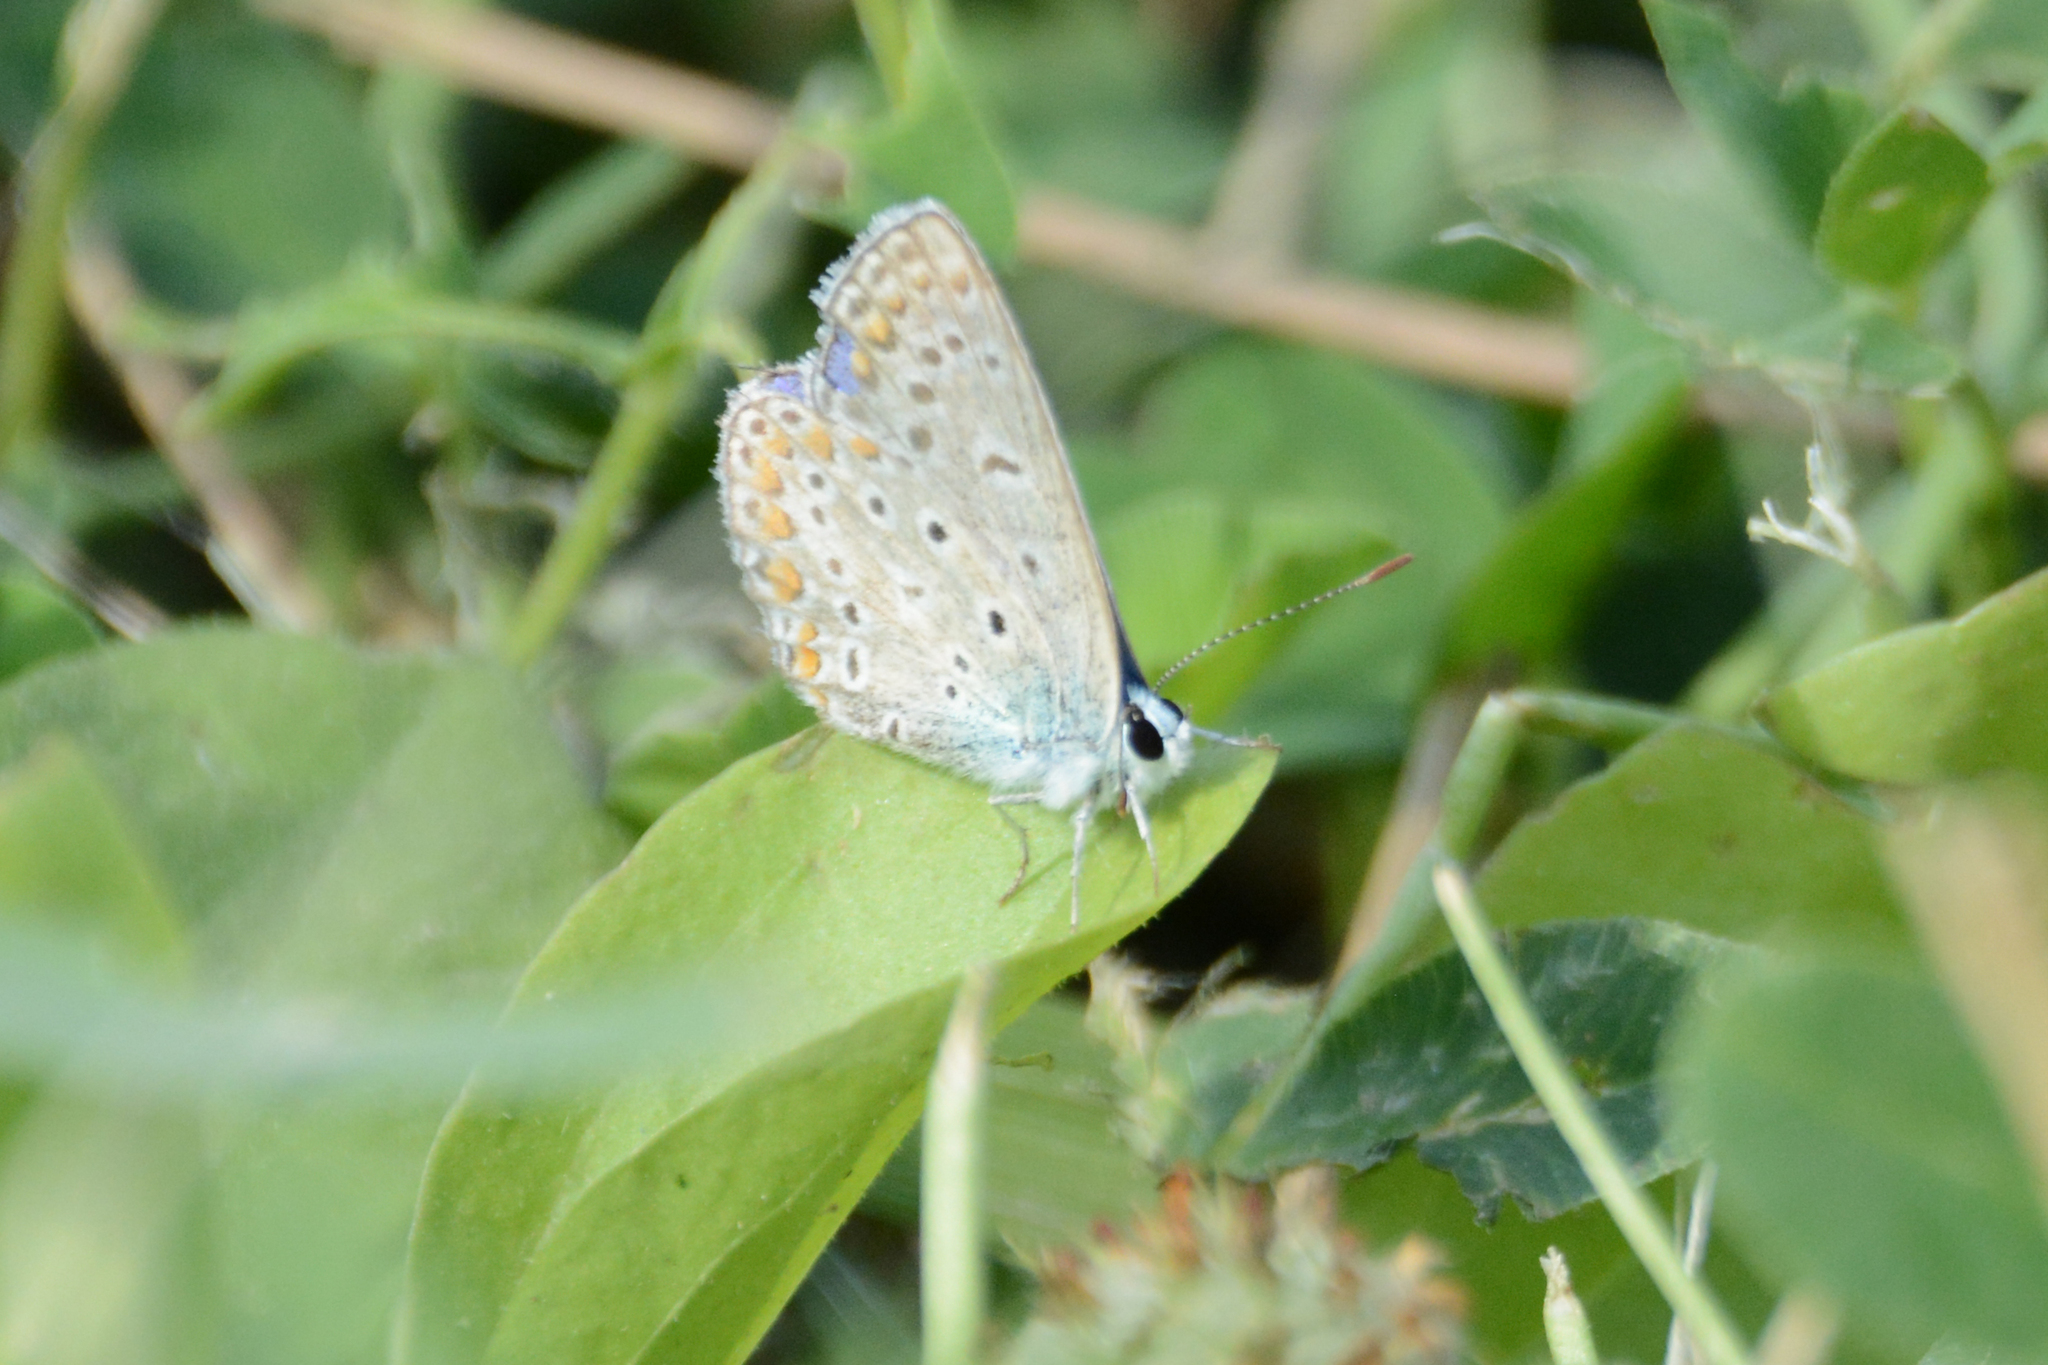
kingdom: Animalia
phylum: Arthropoda
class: Insecta
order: Lepidoptera
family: Lycaenidae
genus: Polyommatus
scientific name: Polyommatus icarus
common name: Common blue
